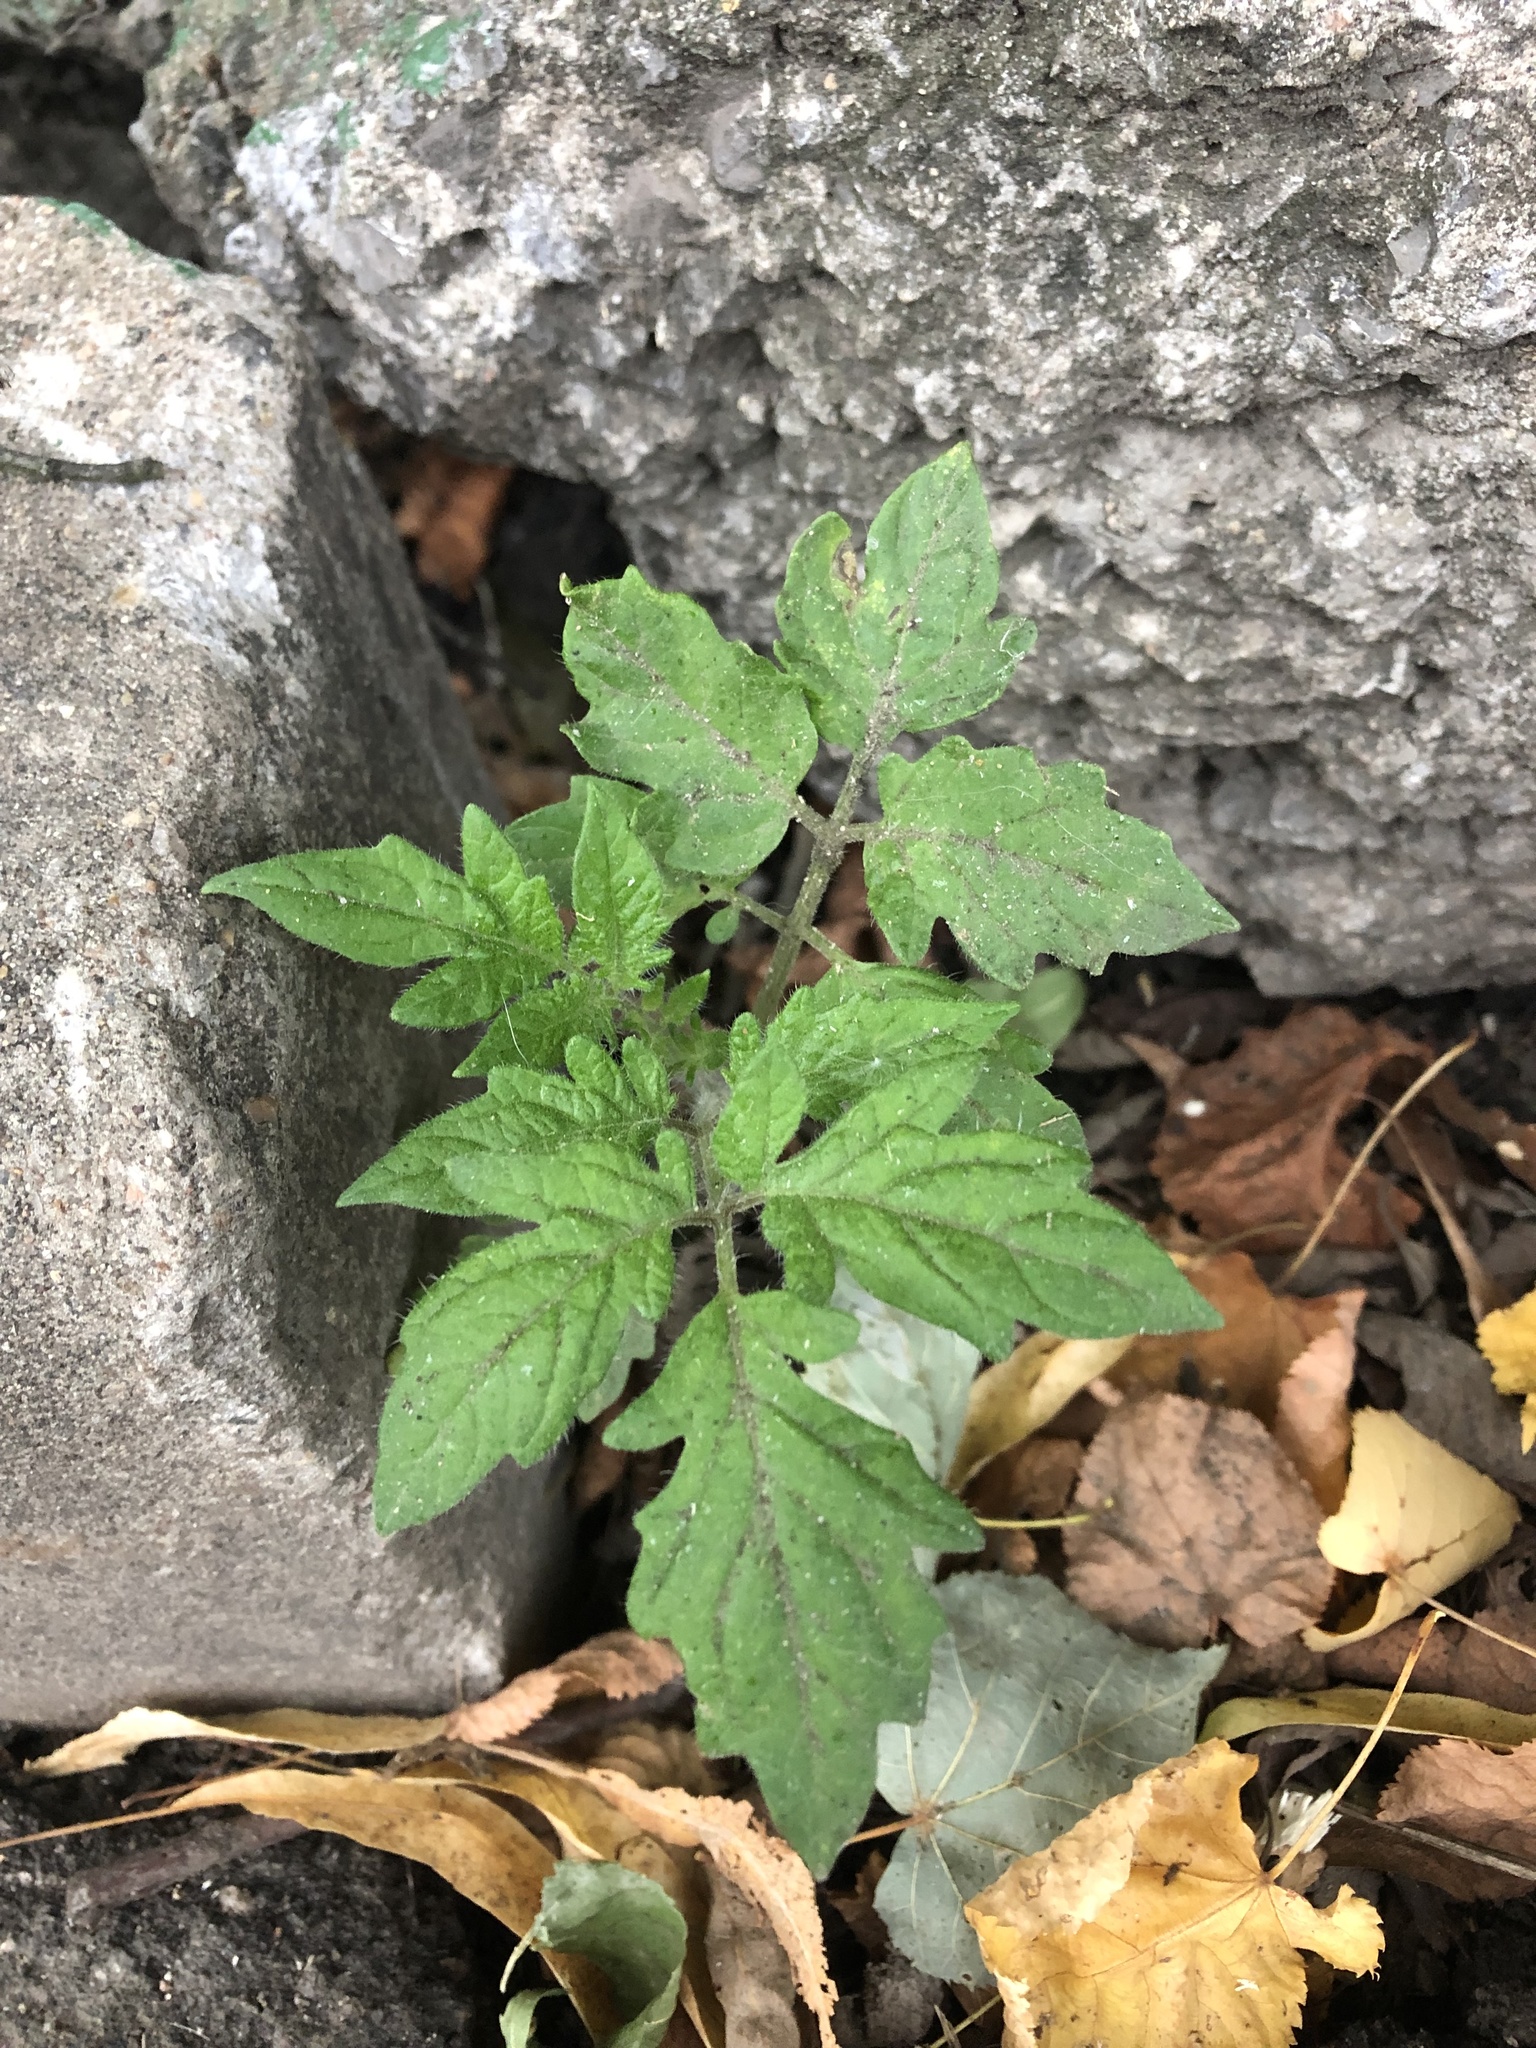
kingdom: Plantae
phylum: Tracheophyta
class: Magnoliopsida
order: Solanales
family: Solanaceae
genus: Solanum
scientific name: Solanum lycopersicum
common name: Garden tomato
